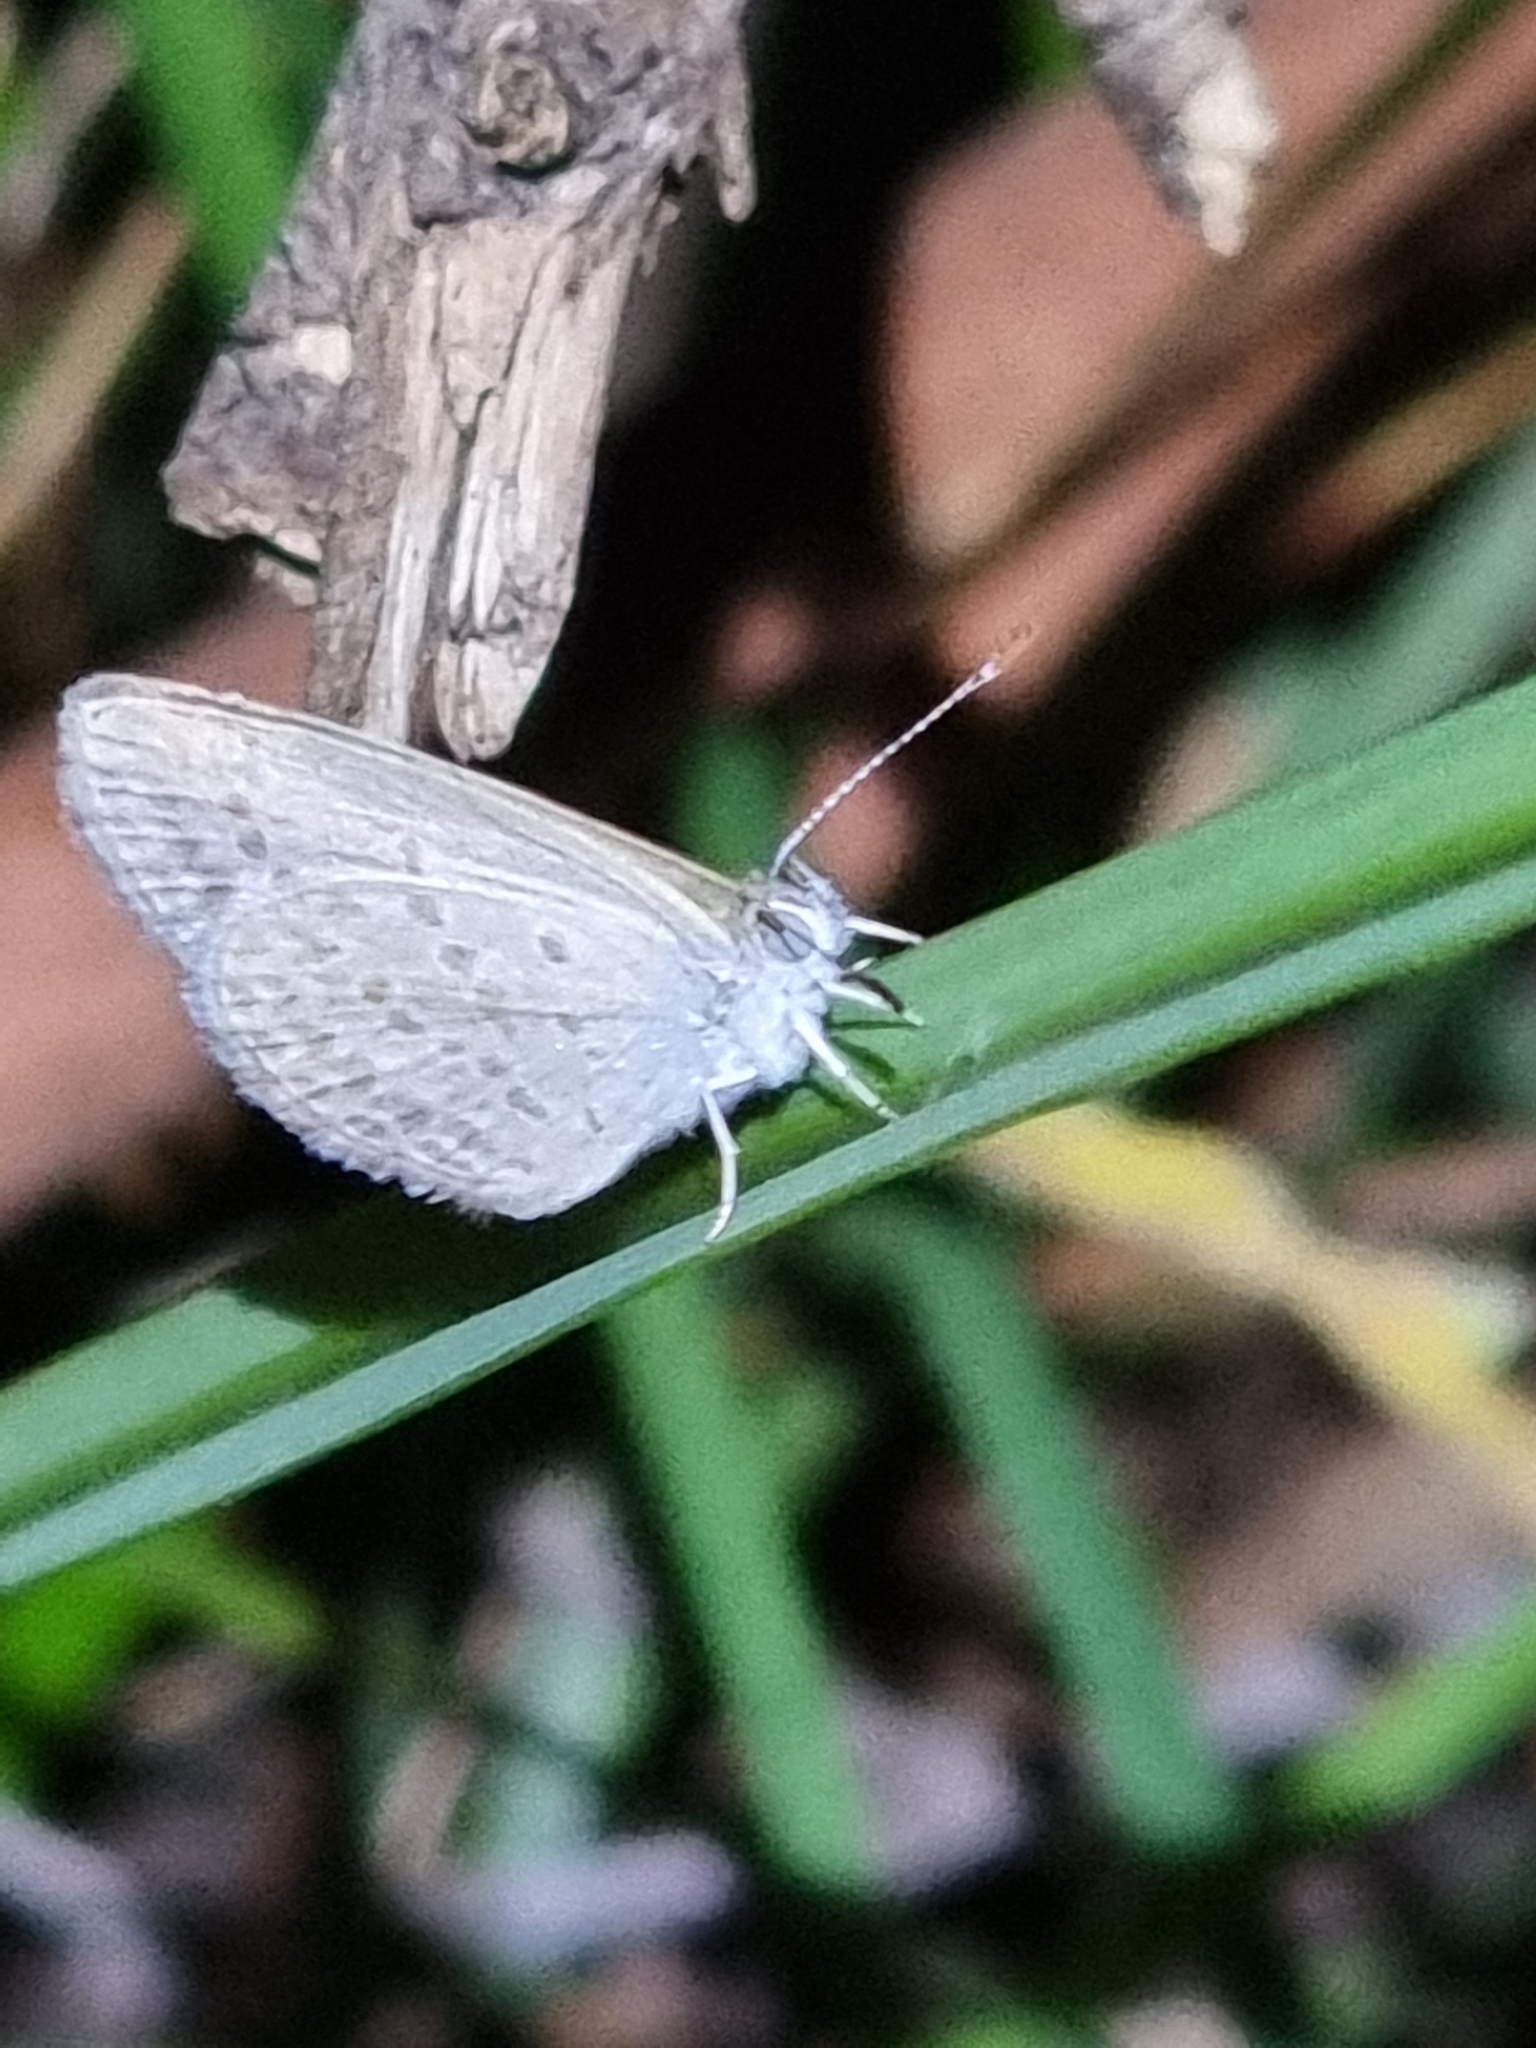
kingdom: Animalia
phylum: Arthropoda
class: Insecta
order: Lepidoptera
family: Lycaenidae
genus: Zizina
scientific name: Zizina otis
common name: Lesser grass blue
